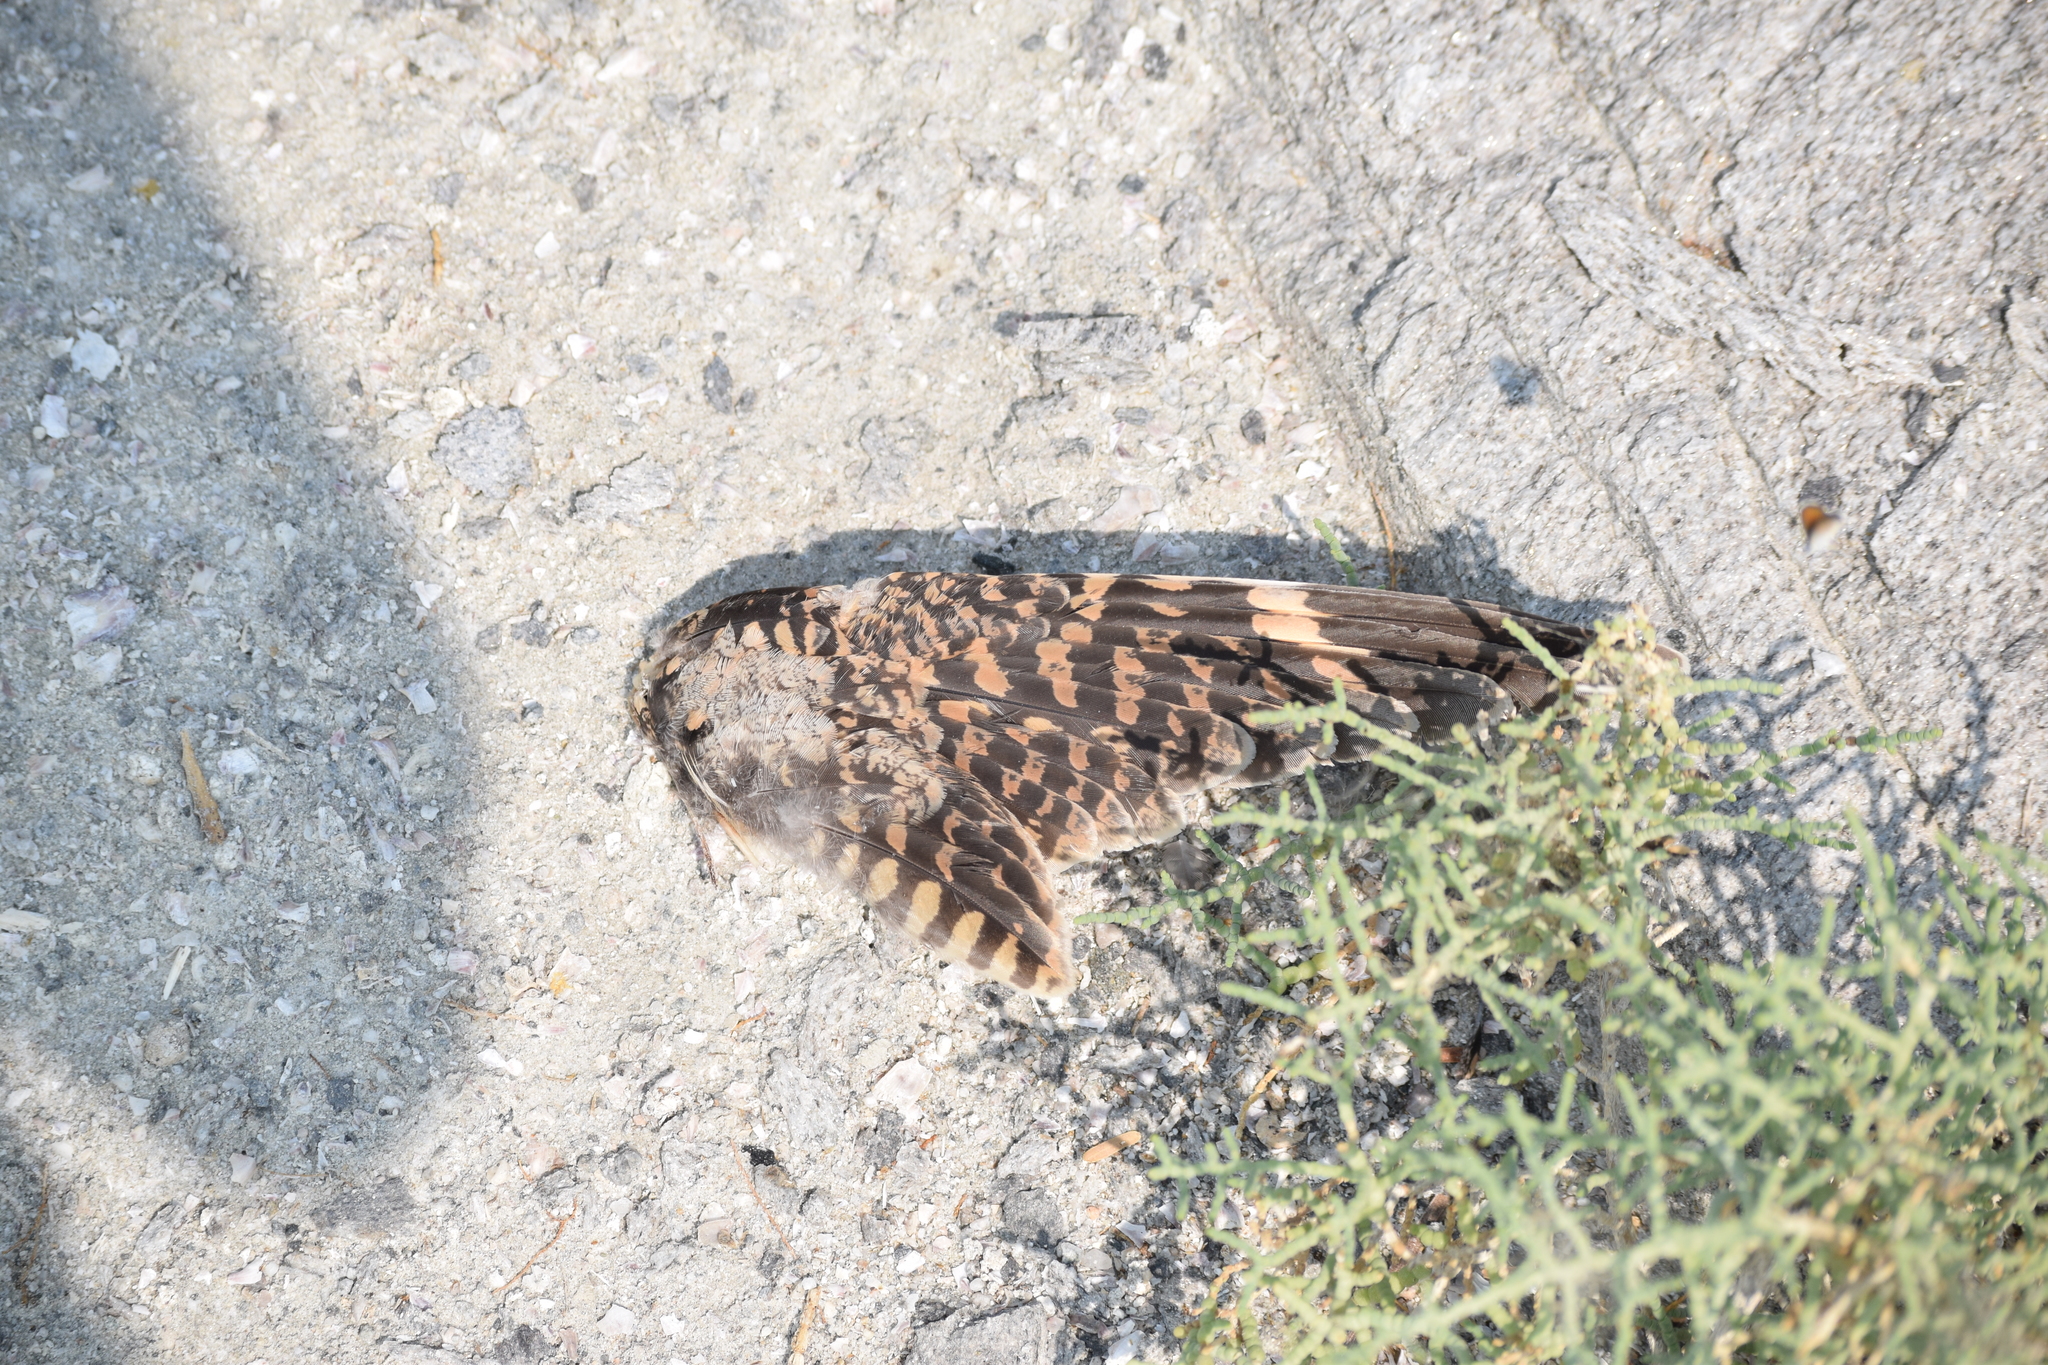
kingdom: Animalia
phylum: Chordata
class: Aves
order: Caprimulgiformes
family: Caprimulgidae
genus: Chordeiles
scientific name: Chordeiles acutipennis
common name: Lesser nighthawk
